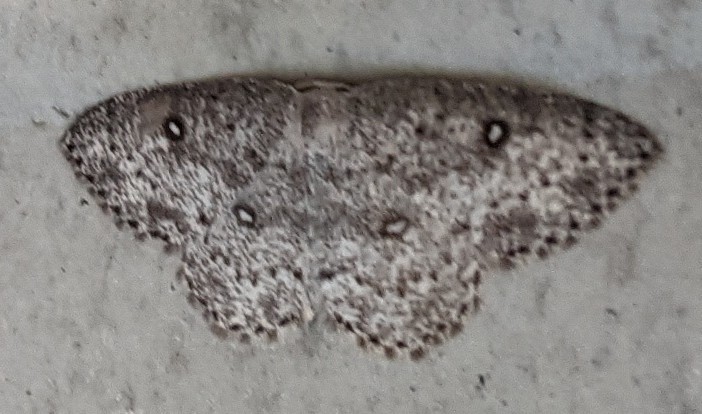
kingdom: Animalia
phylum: Arthropoda
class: Insecta
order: Lepidoptera
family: Geometridae
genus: Cyclophora
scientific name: Cyclophora pendulinaria
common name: Sweet fern geometer
